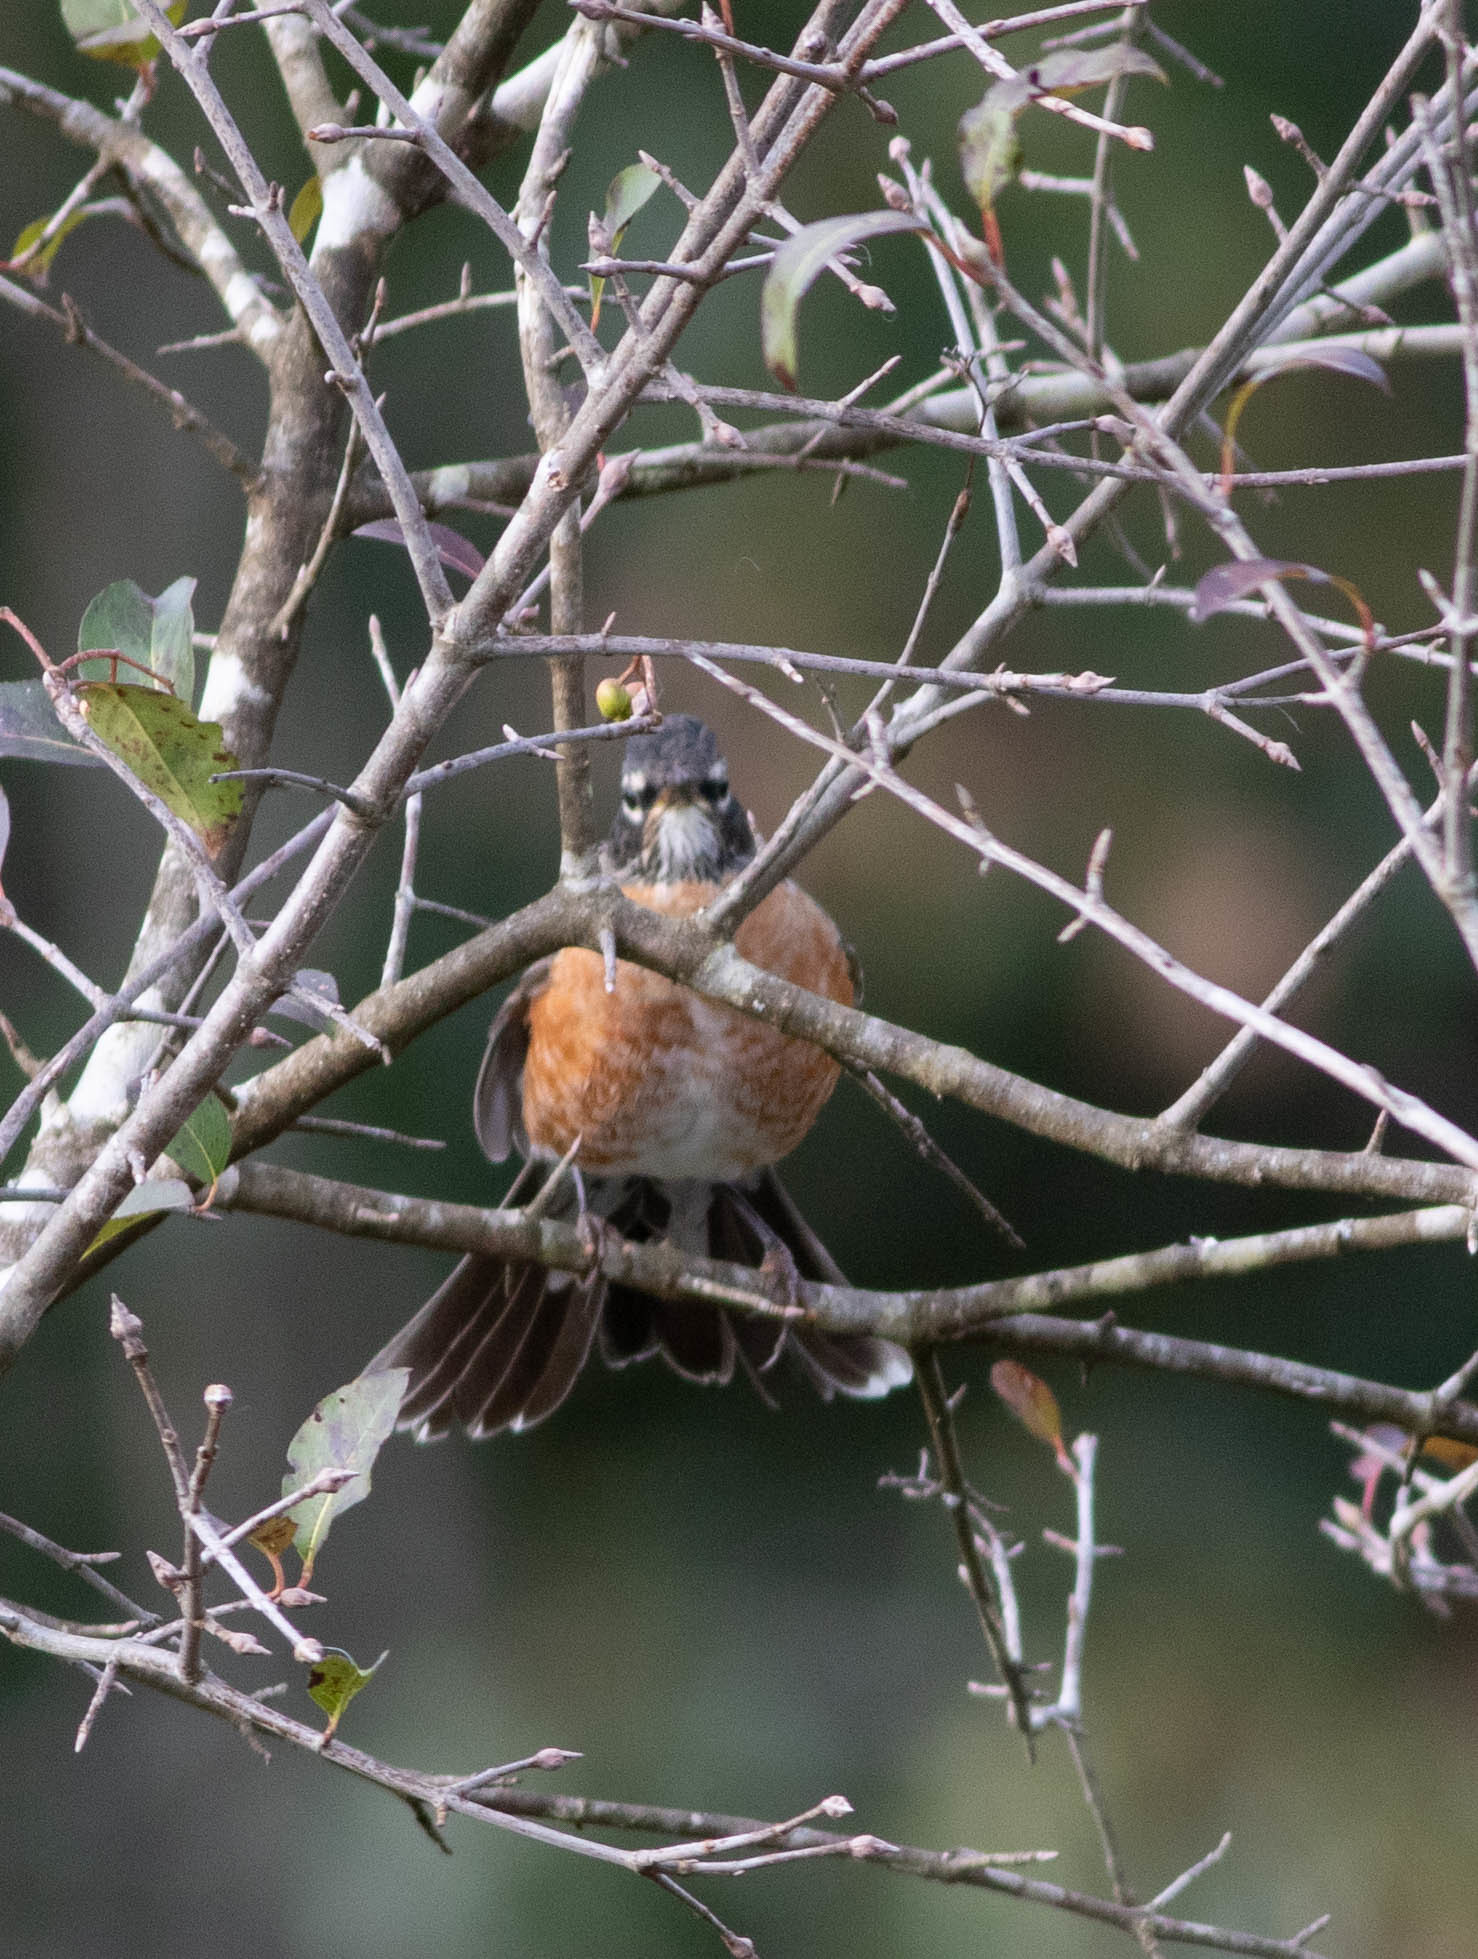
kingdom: Animalia
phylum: Chordata
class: Aves
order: Passeriformes
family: Turdidae
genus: Turdus
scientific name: Turdus migratorius
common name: American robin
